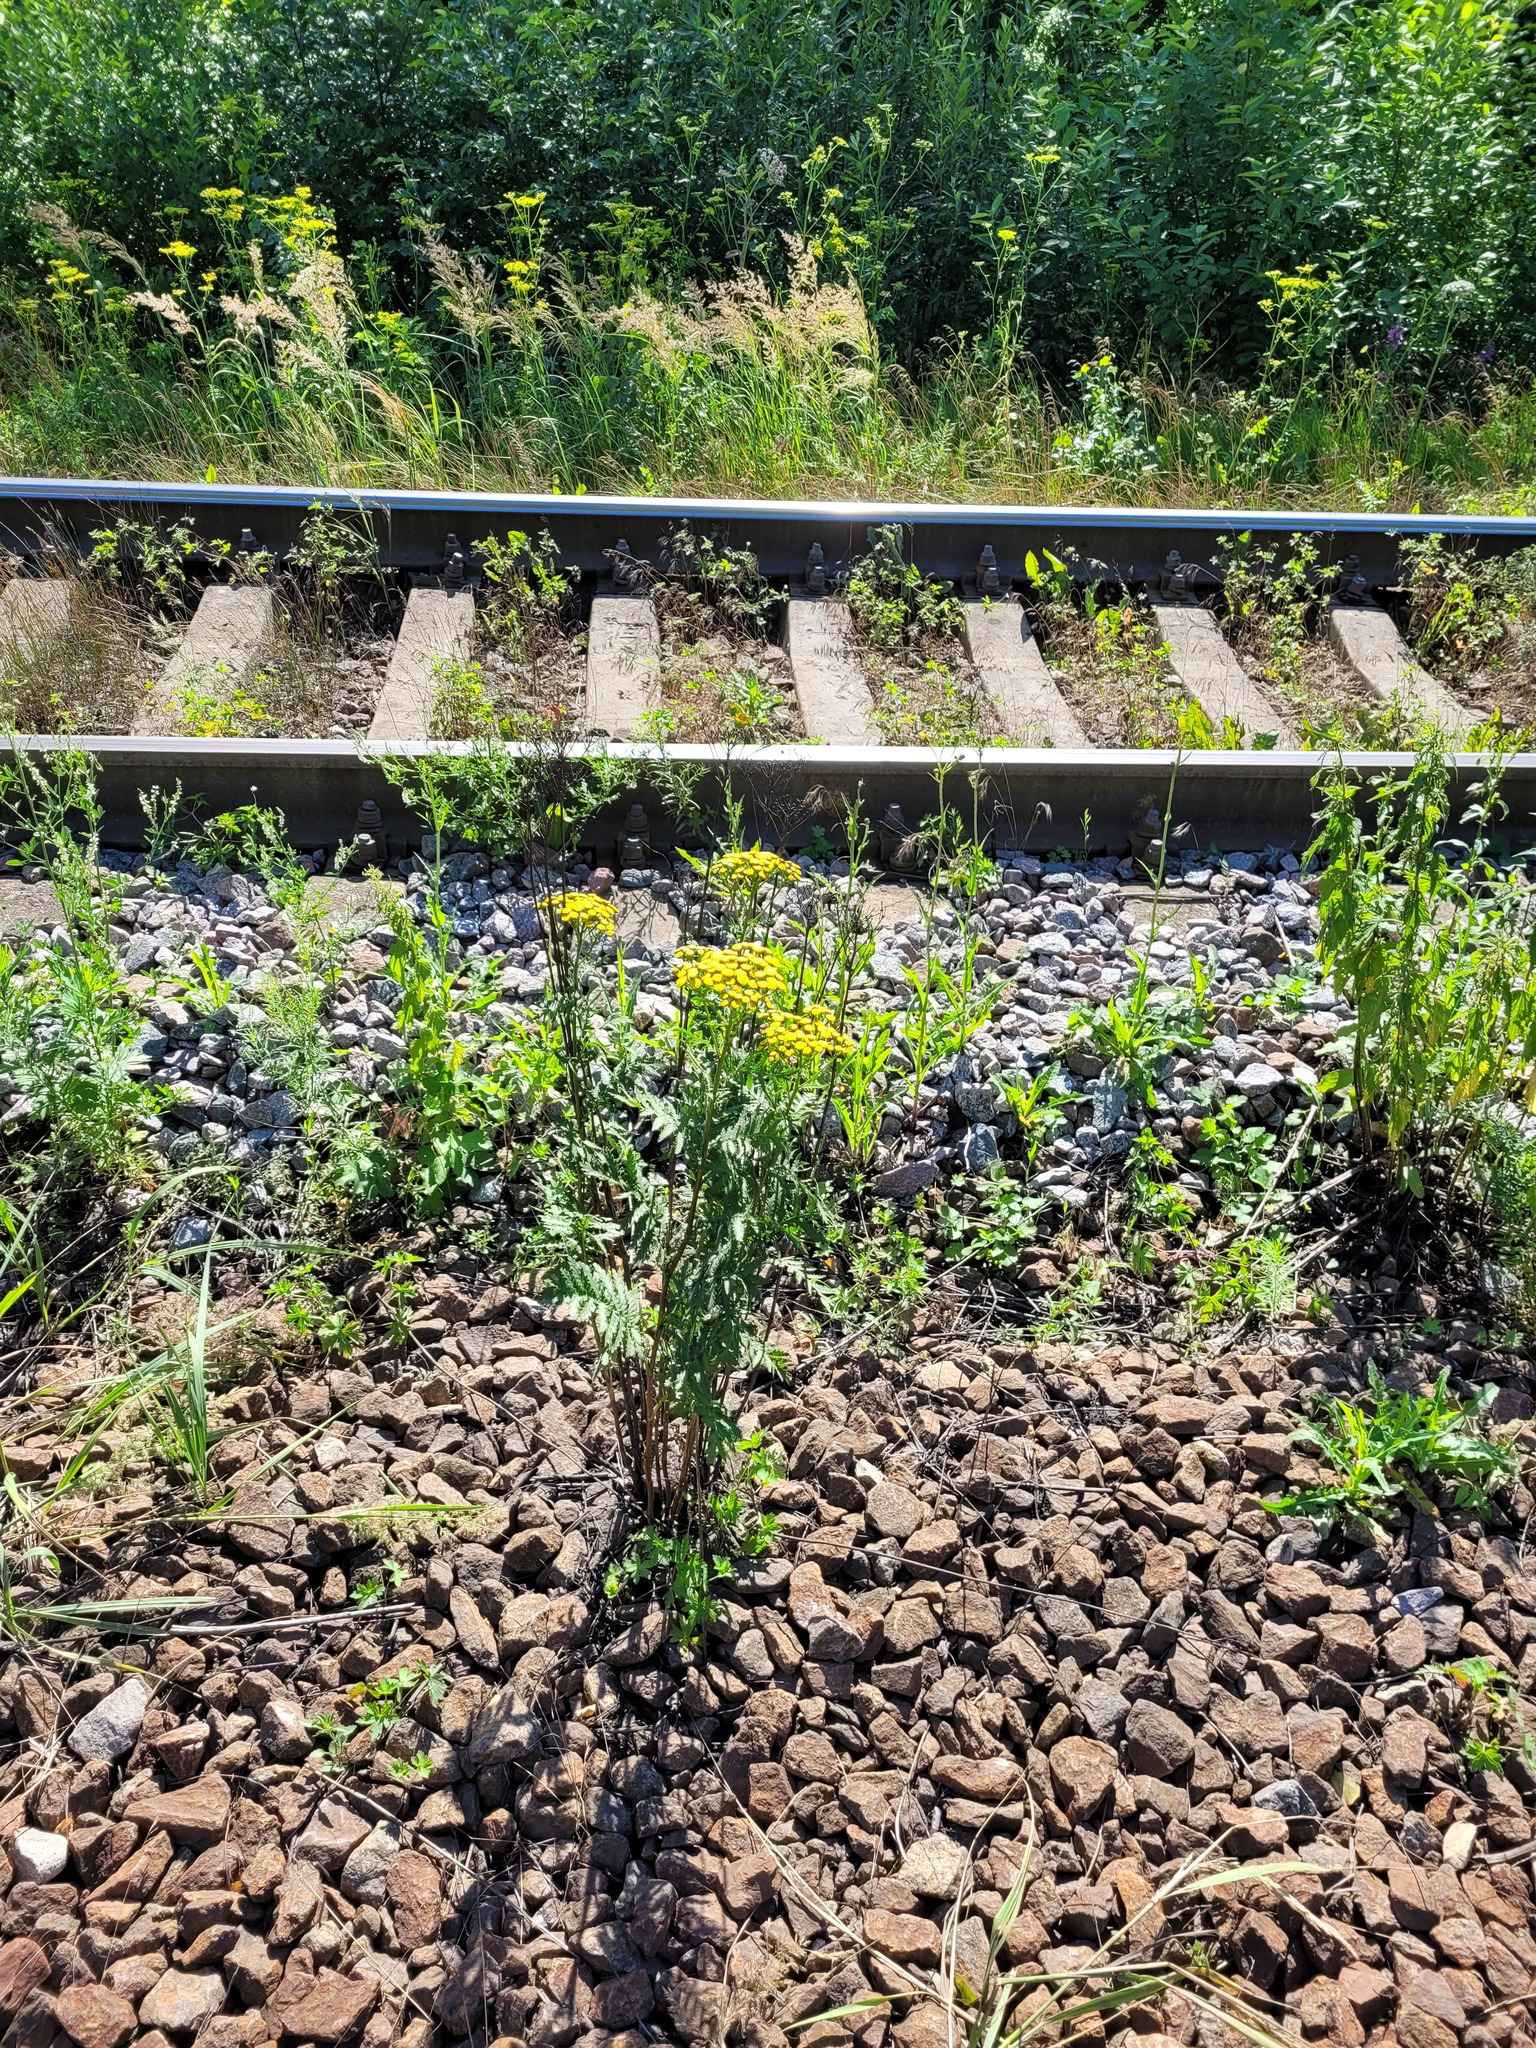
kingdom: Plantae
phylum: Tracheophyta
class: Magnoliopsida
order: Asterales
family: Asteraceae
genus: Tanacetum
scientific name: Tanacetum vulgare
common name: Common tansy
